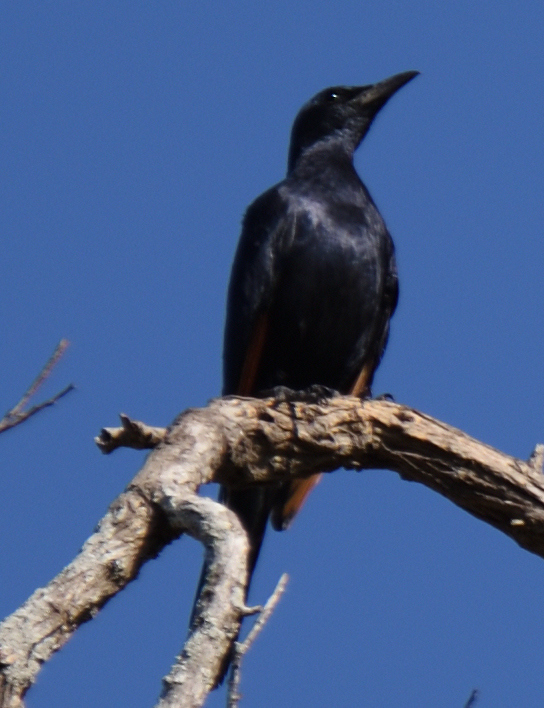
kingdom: Animalia
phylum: Chordata
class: Aves
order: Passeriformes
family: Sturnidae
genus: Onychognathus
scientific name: Onychognathus morio
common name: Red-winged starling
